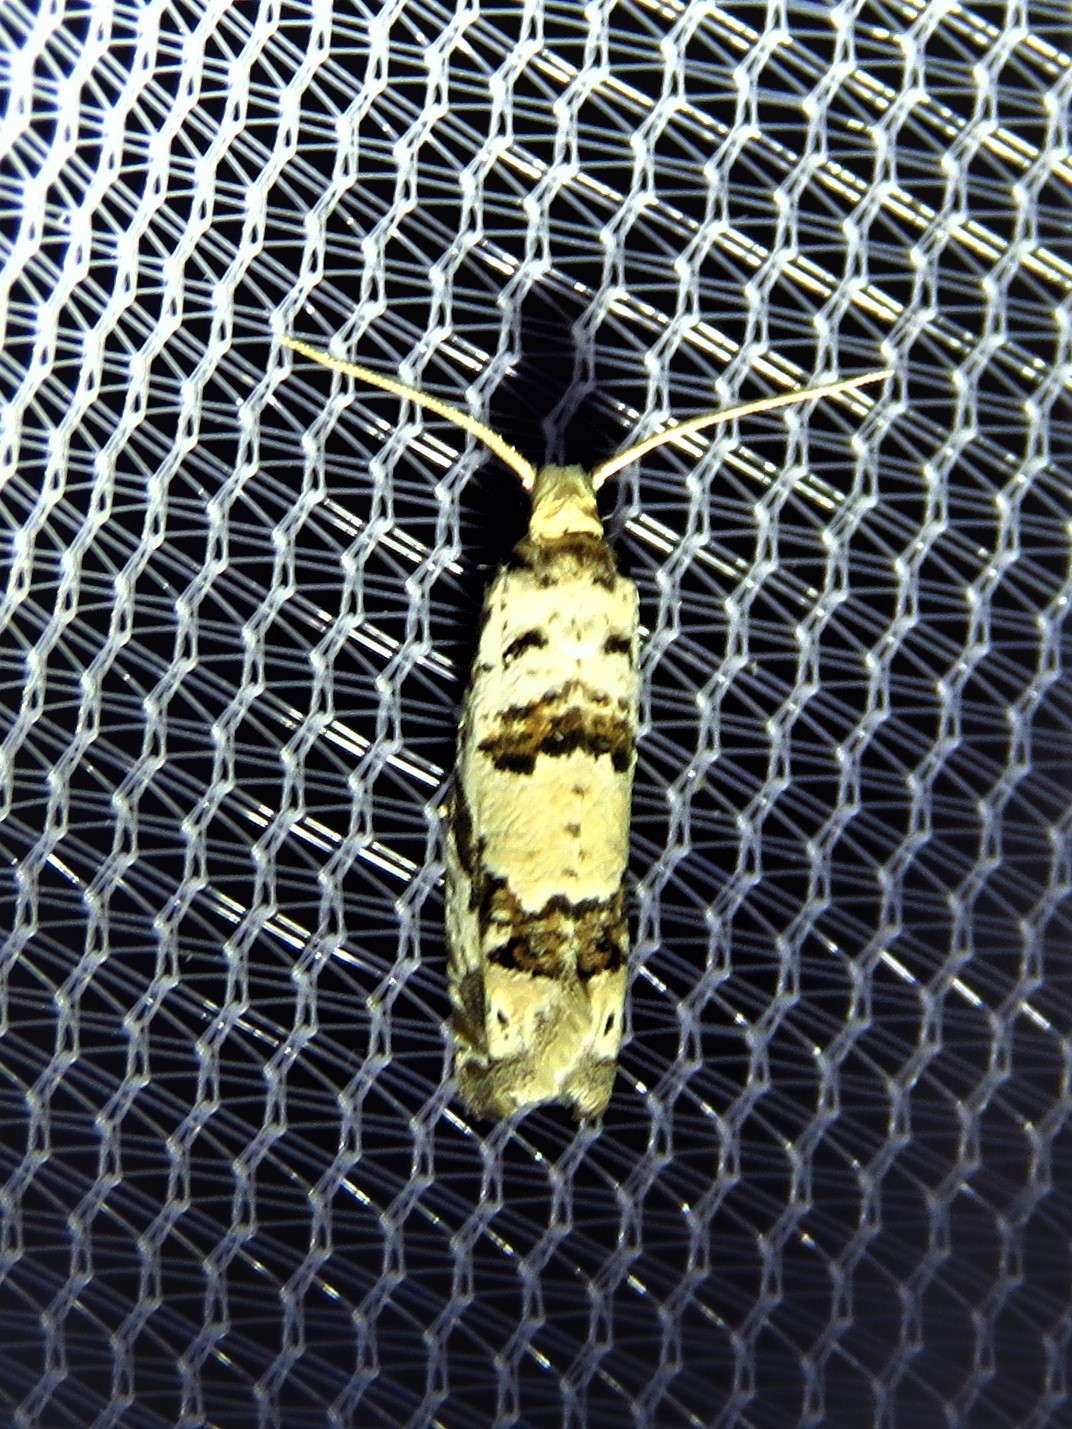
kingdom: Animalia
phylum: Arthropoda
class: Insecta
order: Lepidoptera
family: Tortricidae
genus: Pelochrista
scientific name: Pelochrista matutina
